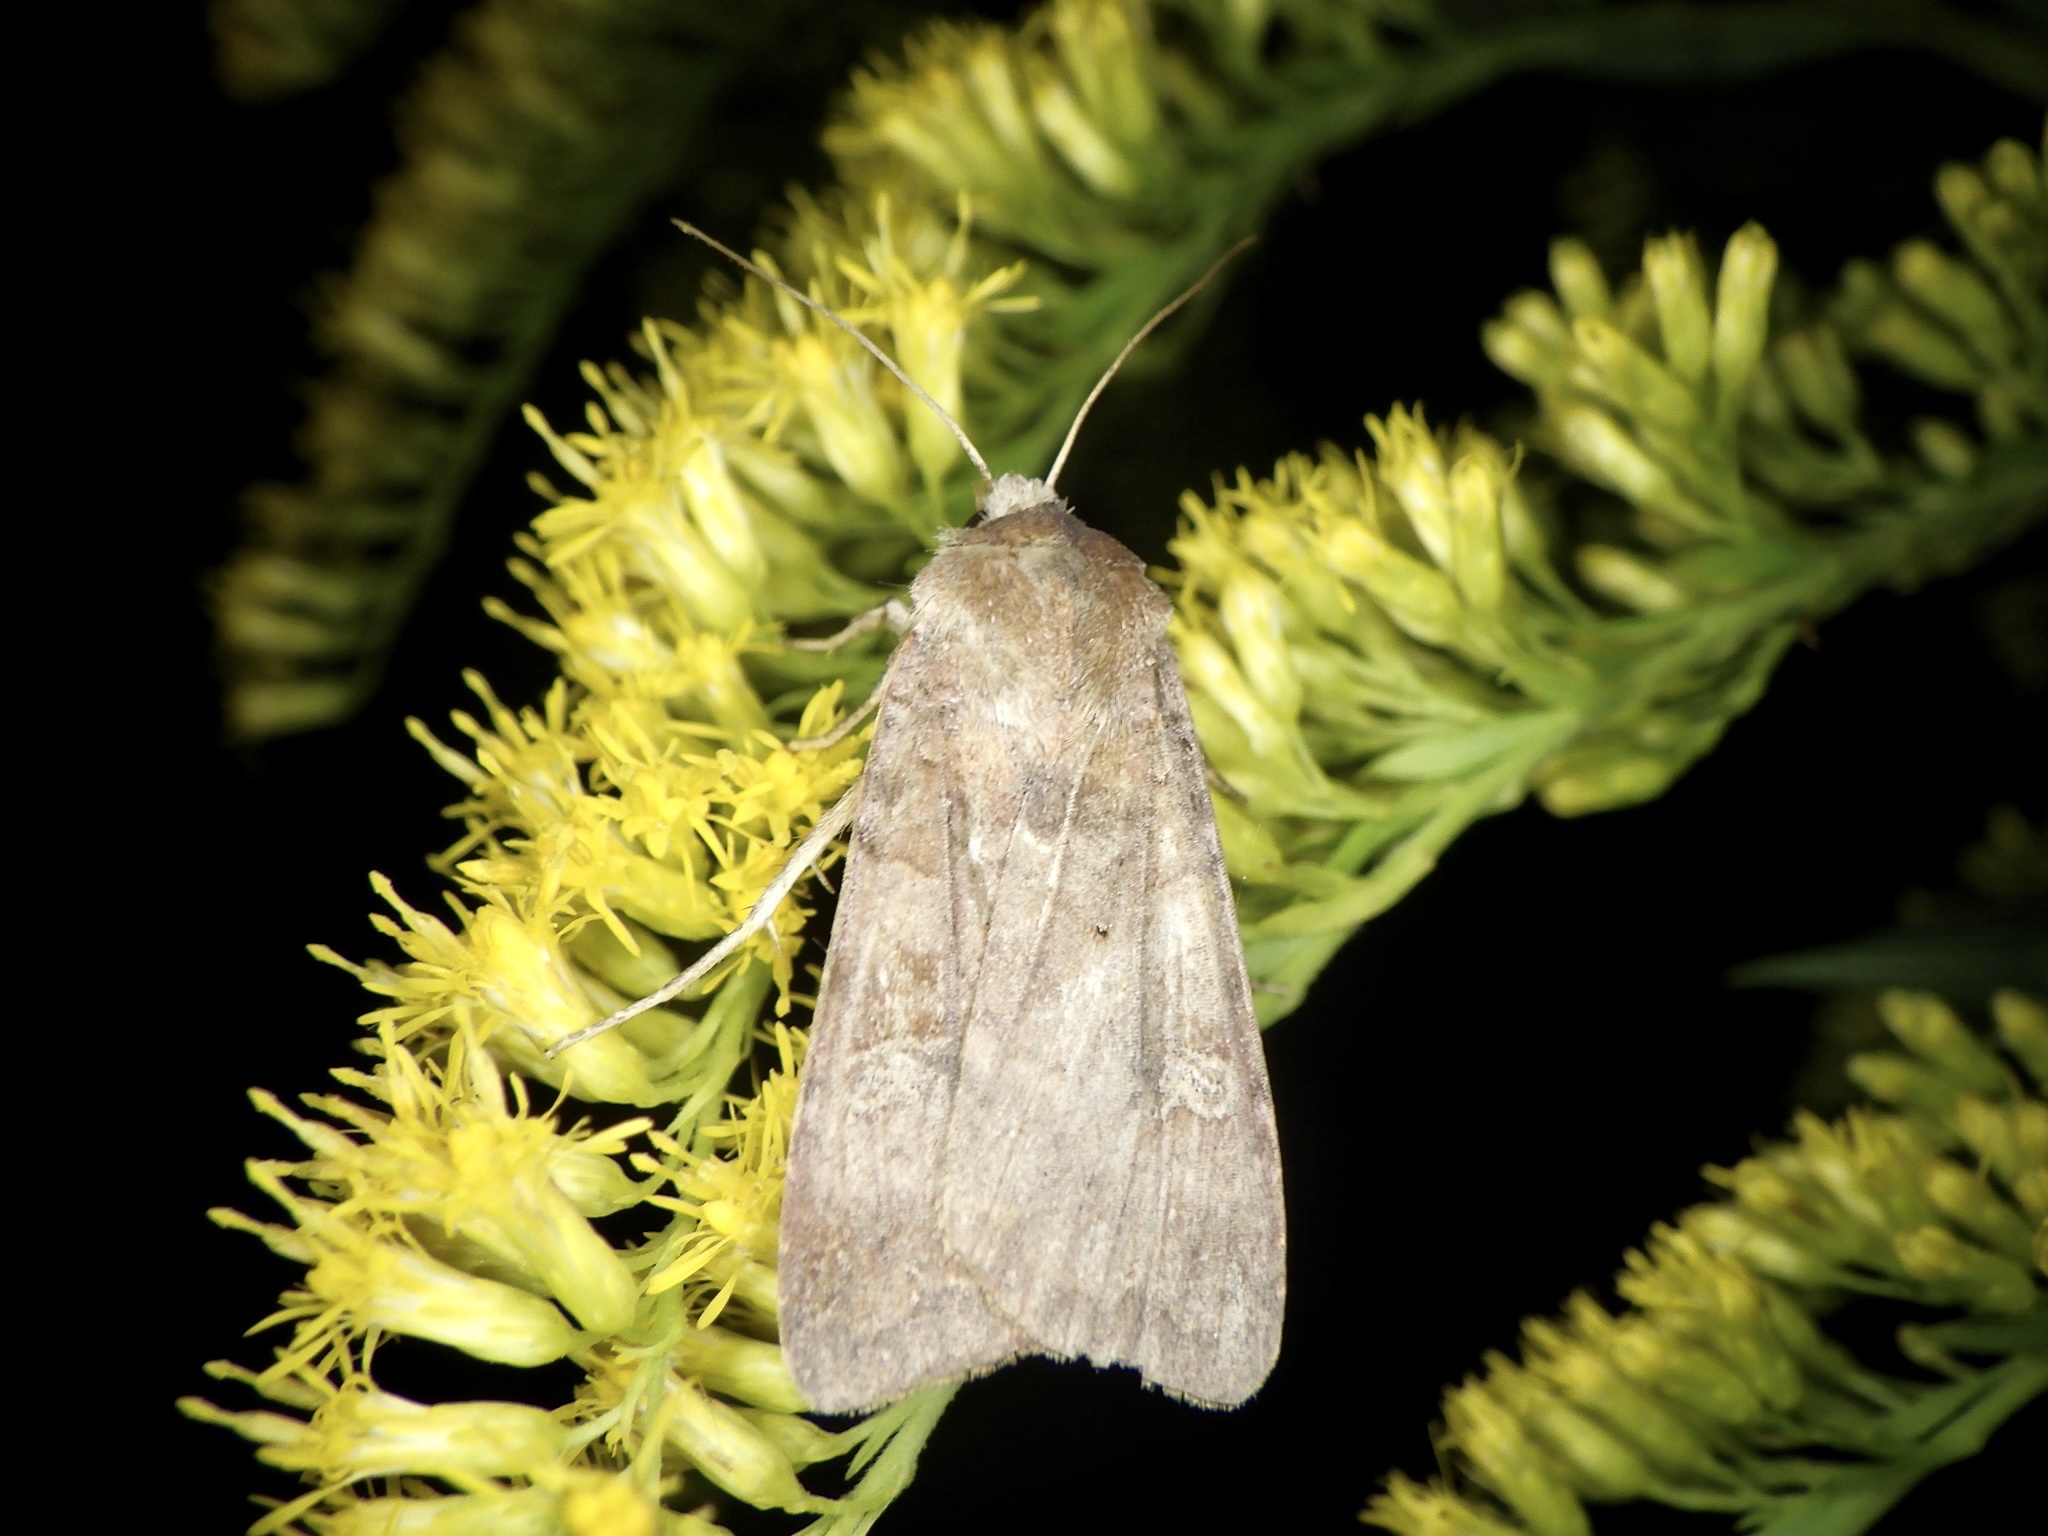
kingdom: Animalia
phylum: Arthropoda
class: Insecta
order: Lepidoptera
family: Noctuidae
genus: Diarsia
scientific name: Diarsia canescens
